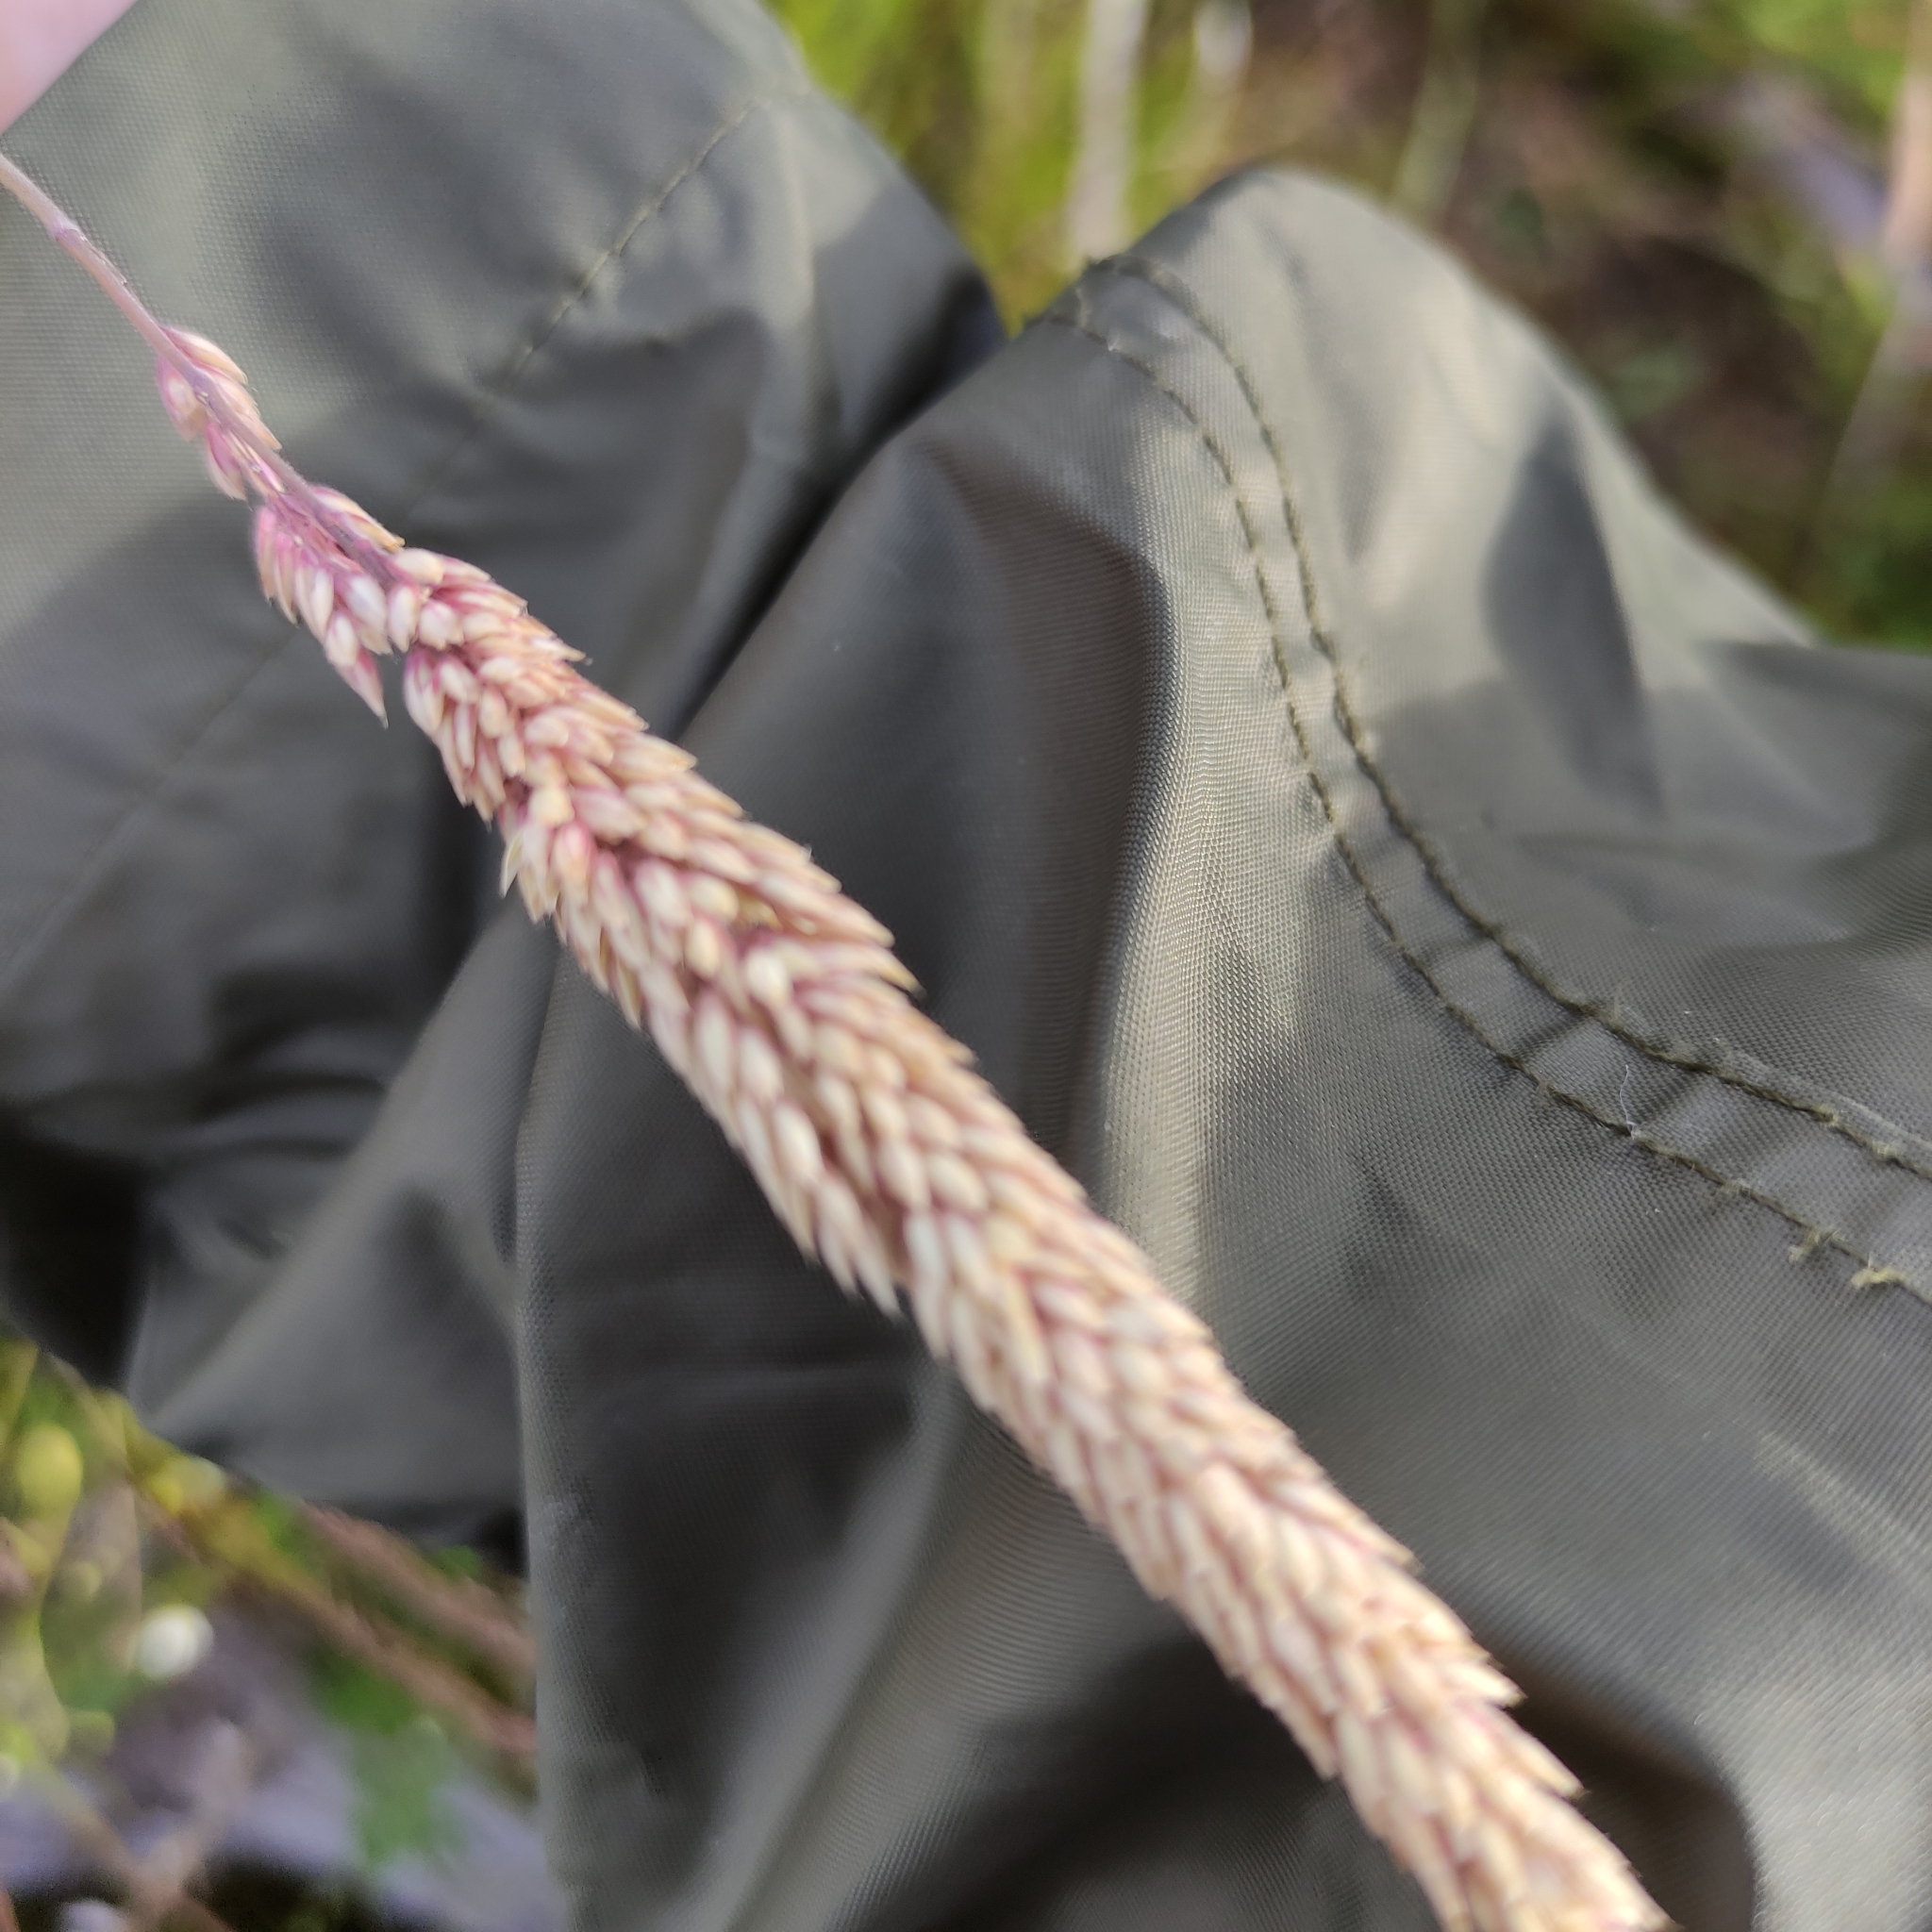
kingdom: Plantae
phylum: Tracheophyta
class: Liliopsida
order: Poales
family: Poaceae
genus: Holcus
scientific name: Holcus lanatus
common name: Yorkshire-fog
